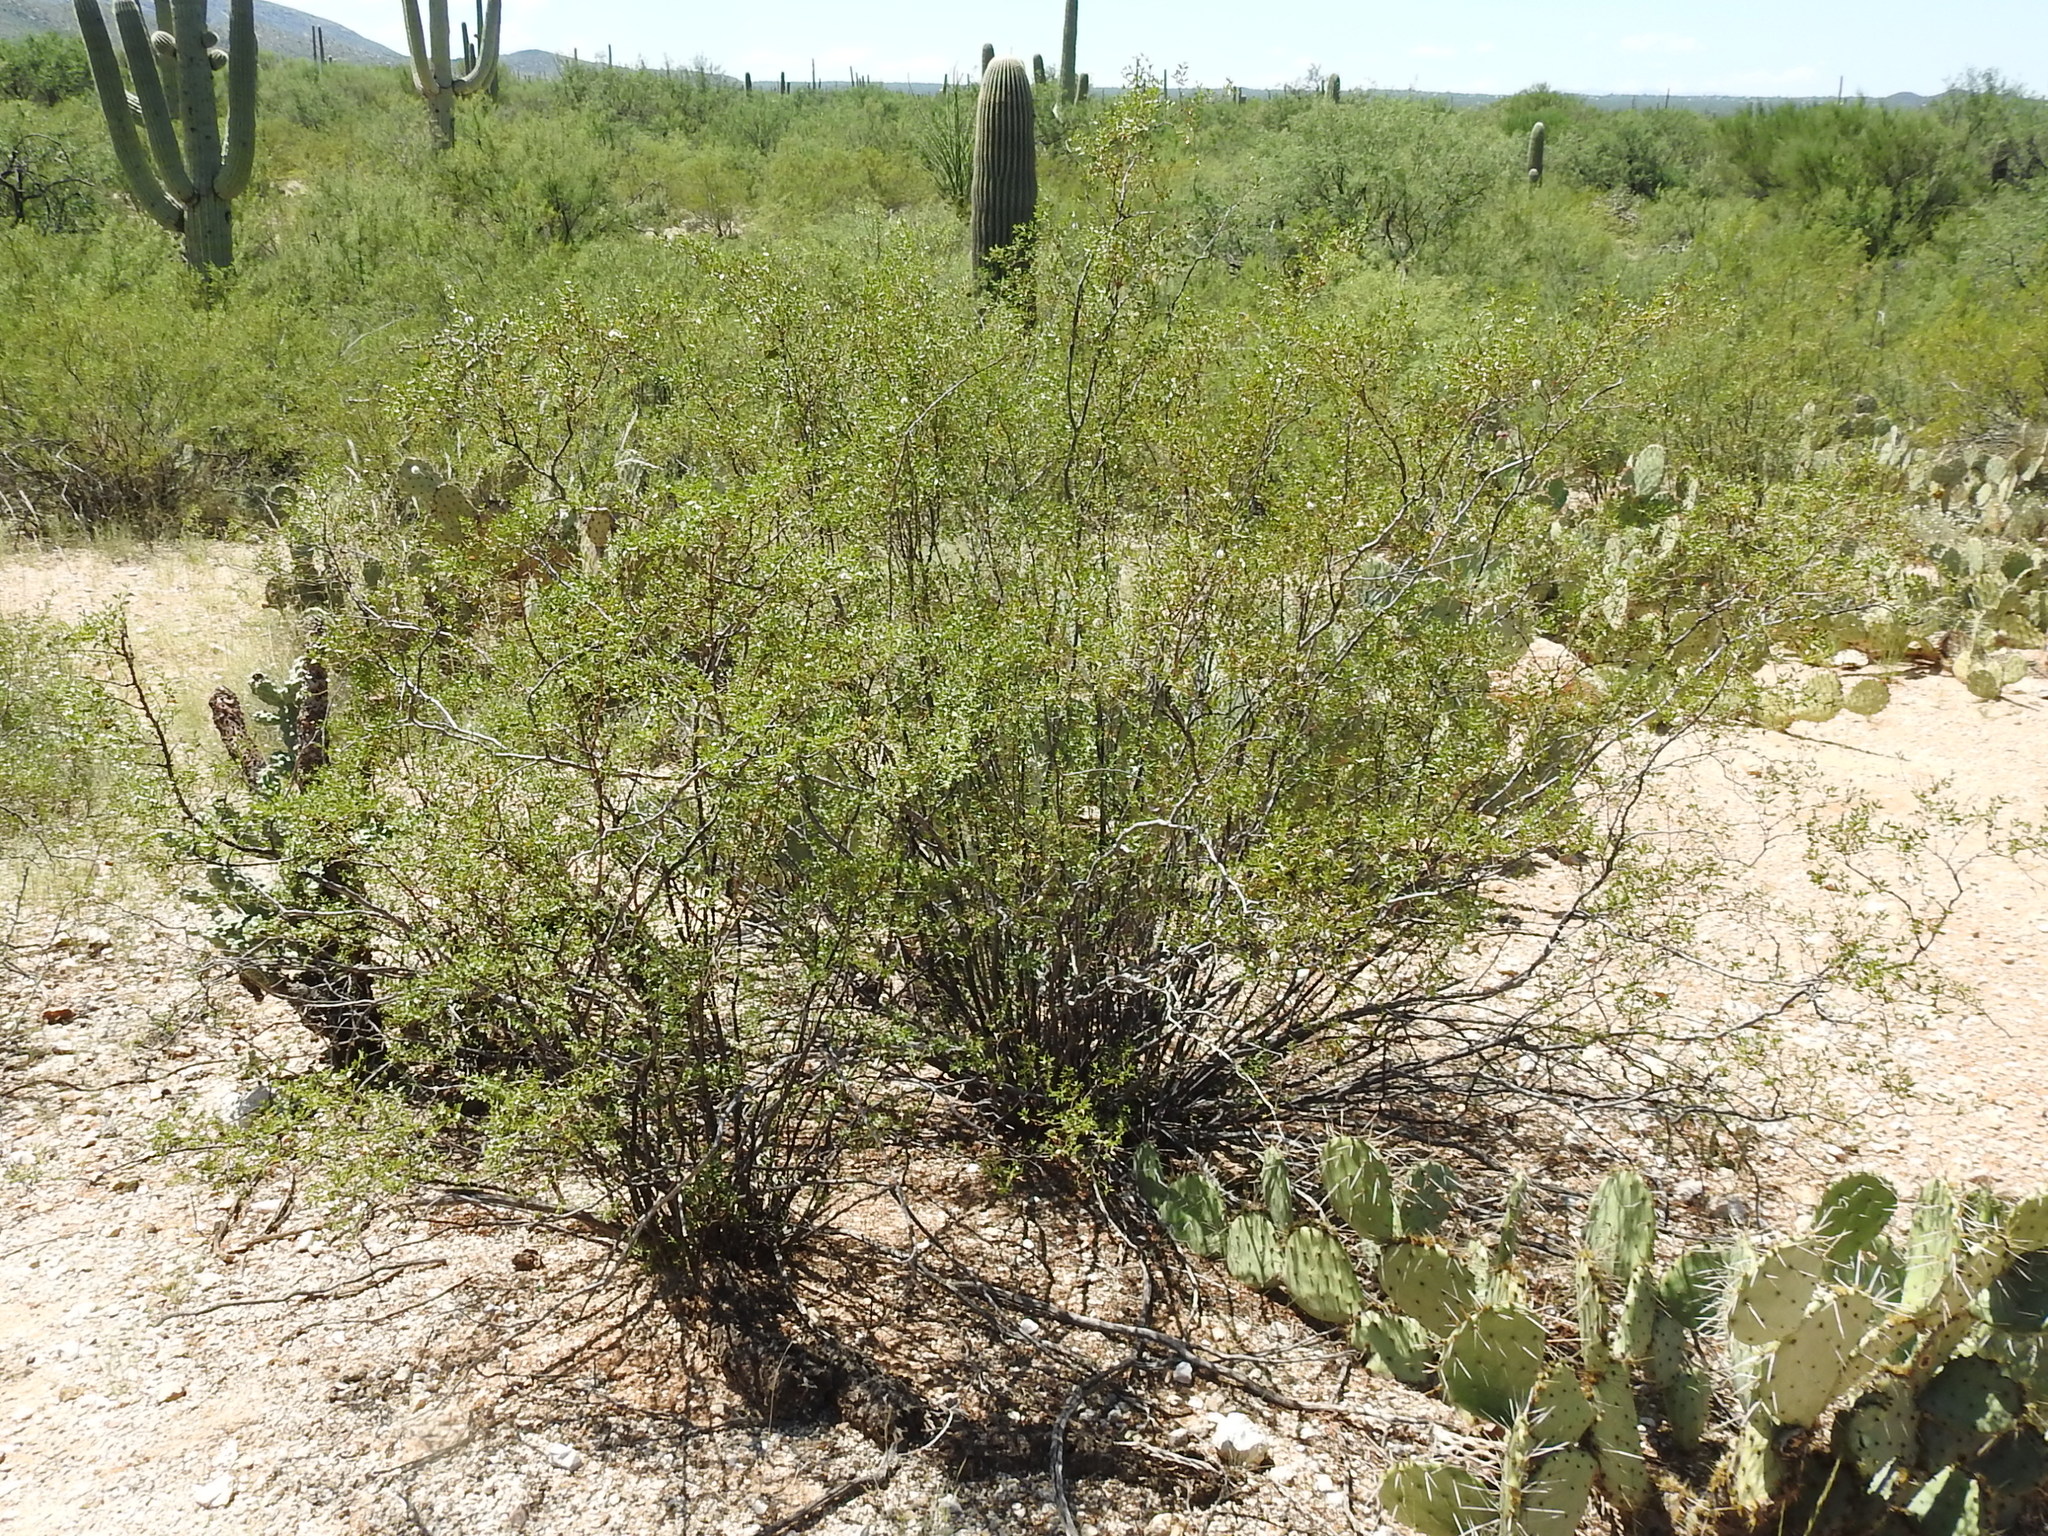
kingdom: Plantae
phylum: Tracheophyta
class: Magnoliopsida
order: Zygophyllales
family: Zygophyllaceae
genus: Larrea
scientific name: Larrea tridentata
